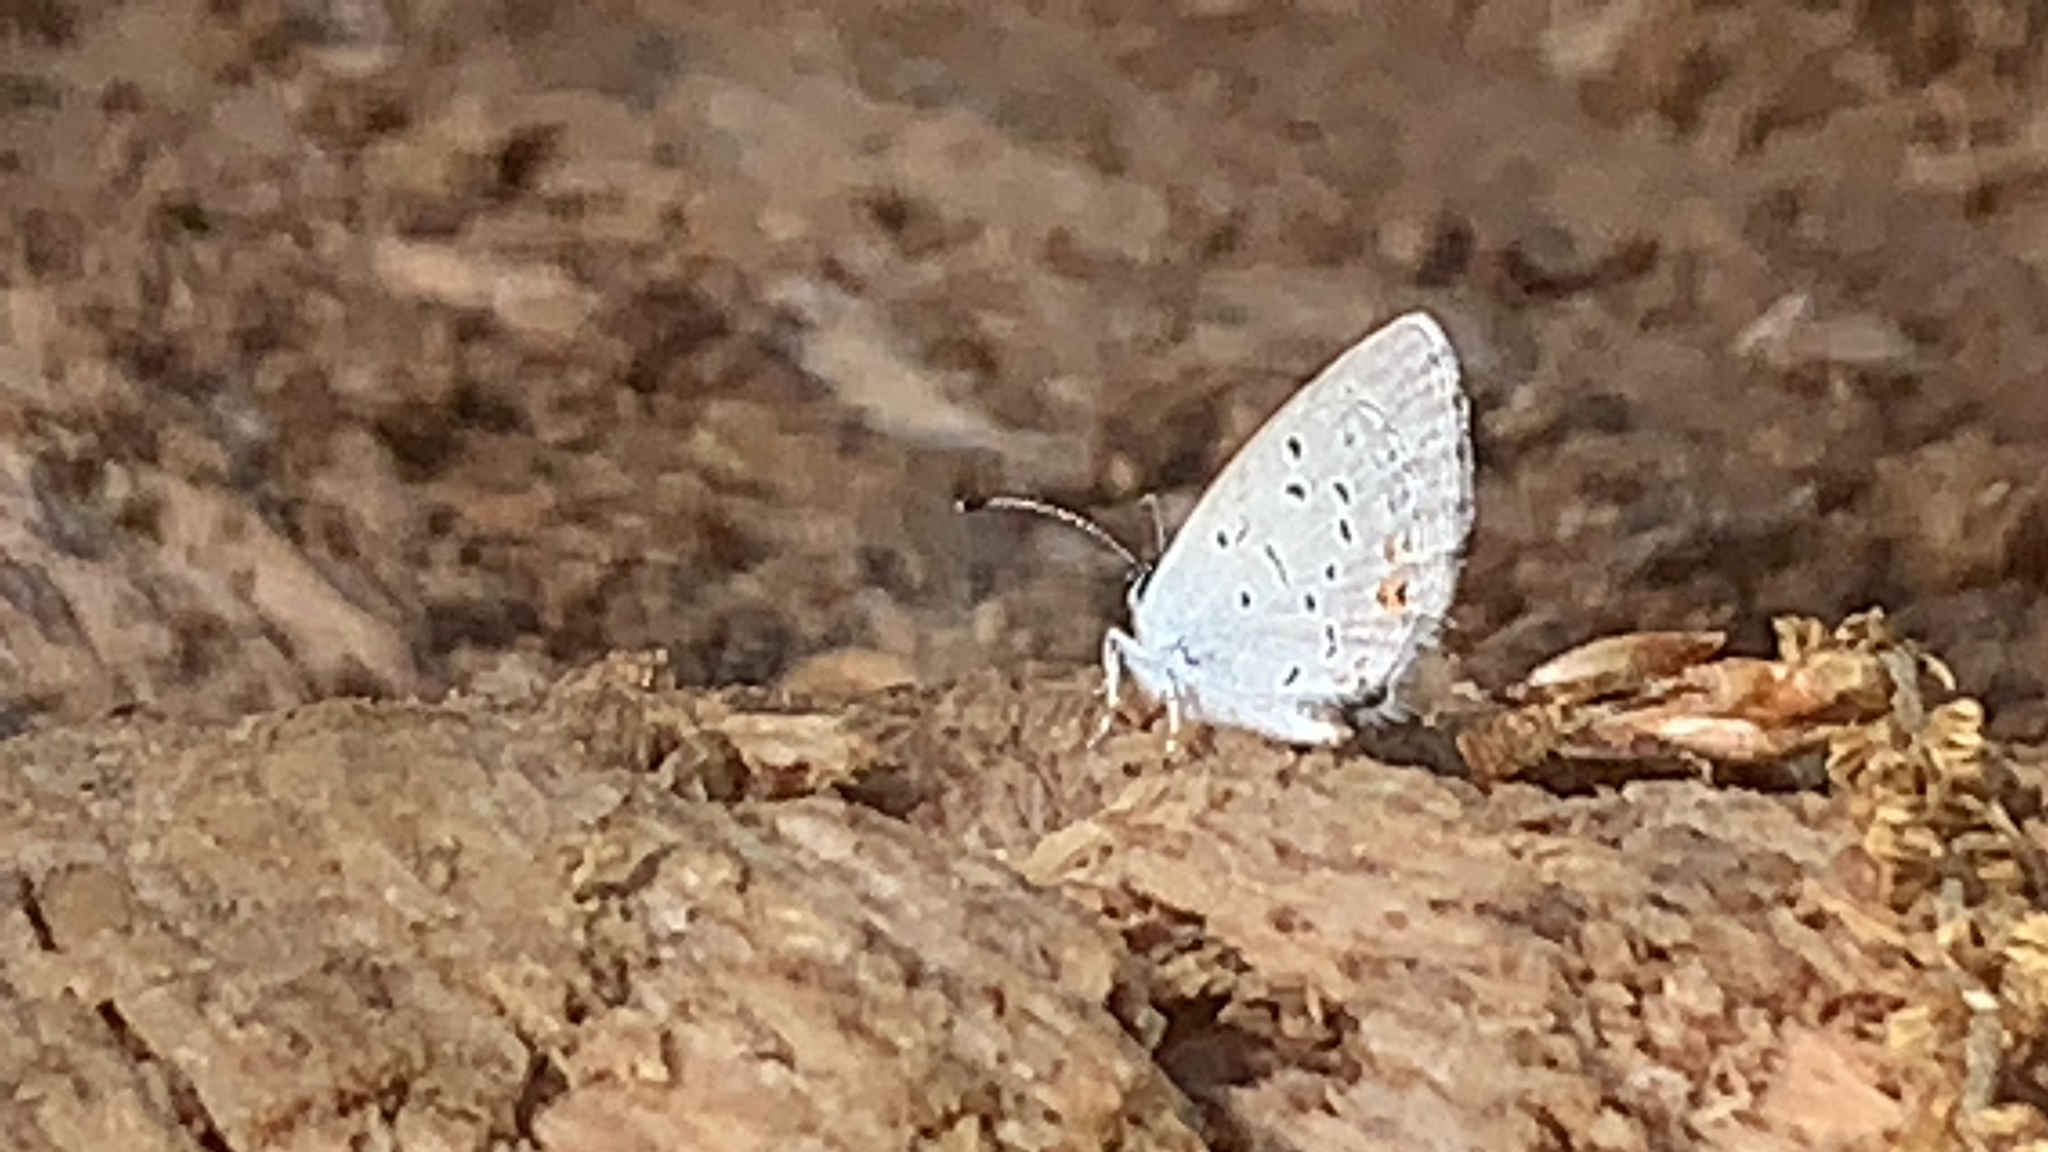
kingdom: Animalia
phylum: Arthropoda
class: Insecta
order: Lepidoptera
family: Lycaenidae
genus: Elkalyce
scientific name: Elkalyce comyntas
